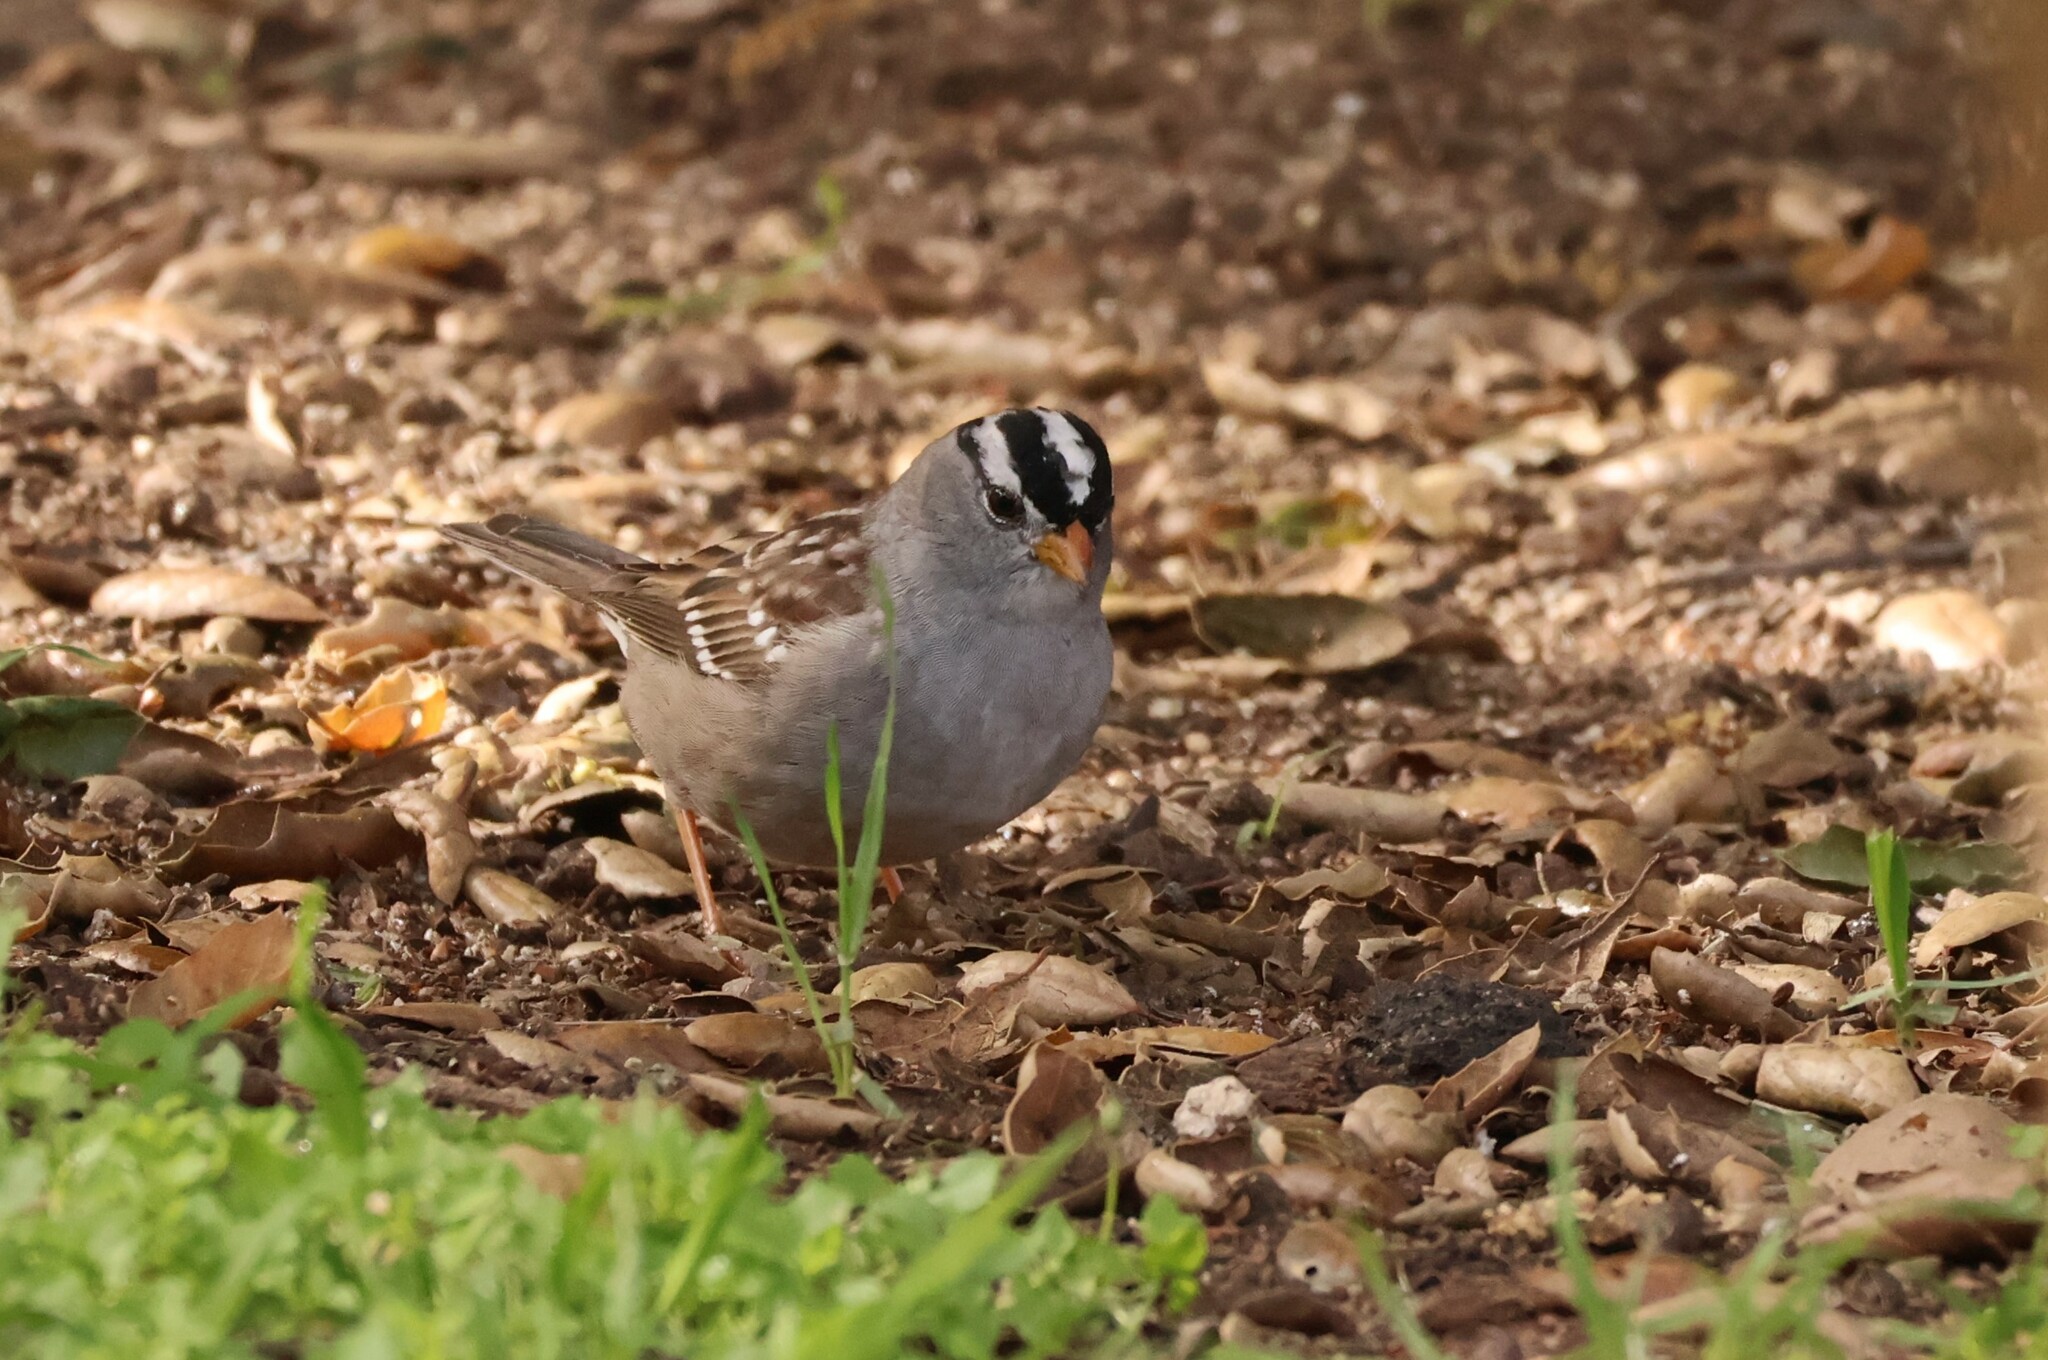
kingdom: Animalia
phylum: Chordata
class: Aves
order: Passeriformes
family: Passerellidae
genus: Zonotrichia
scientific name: Zonotrichia leucophrys
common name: White-crowned sparrow
